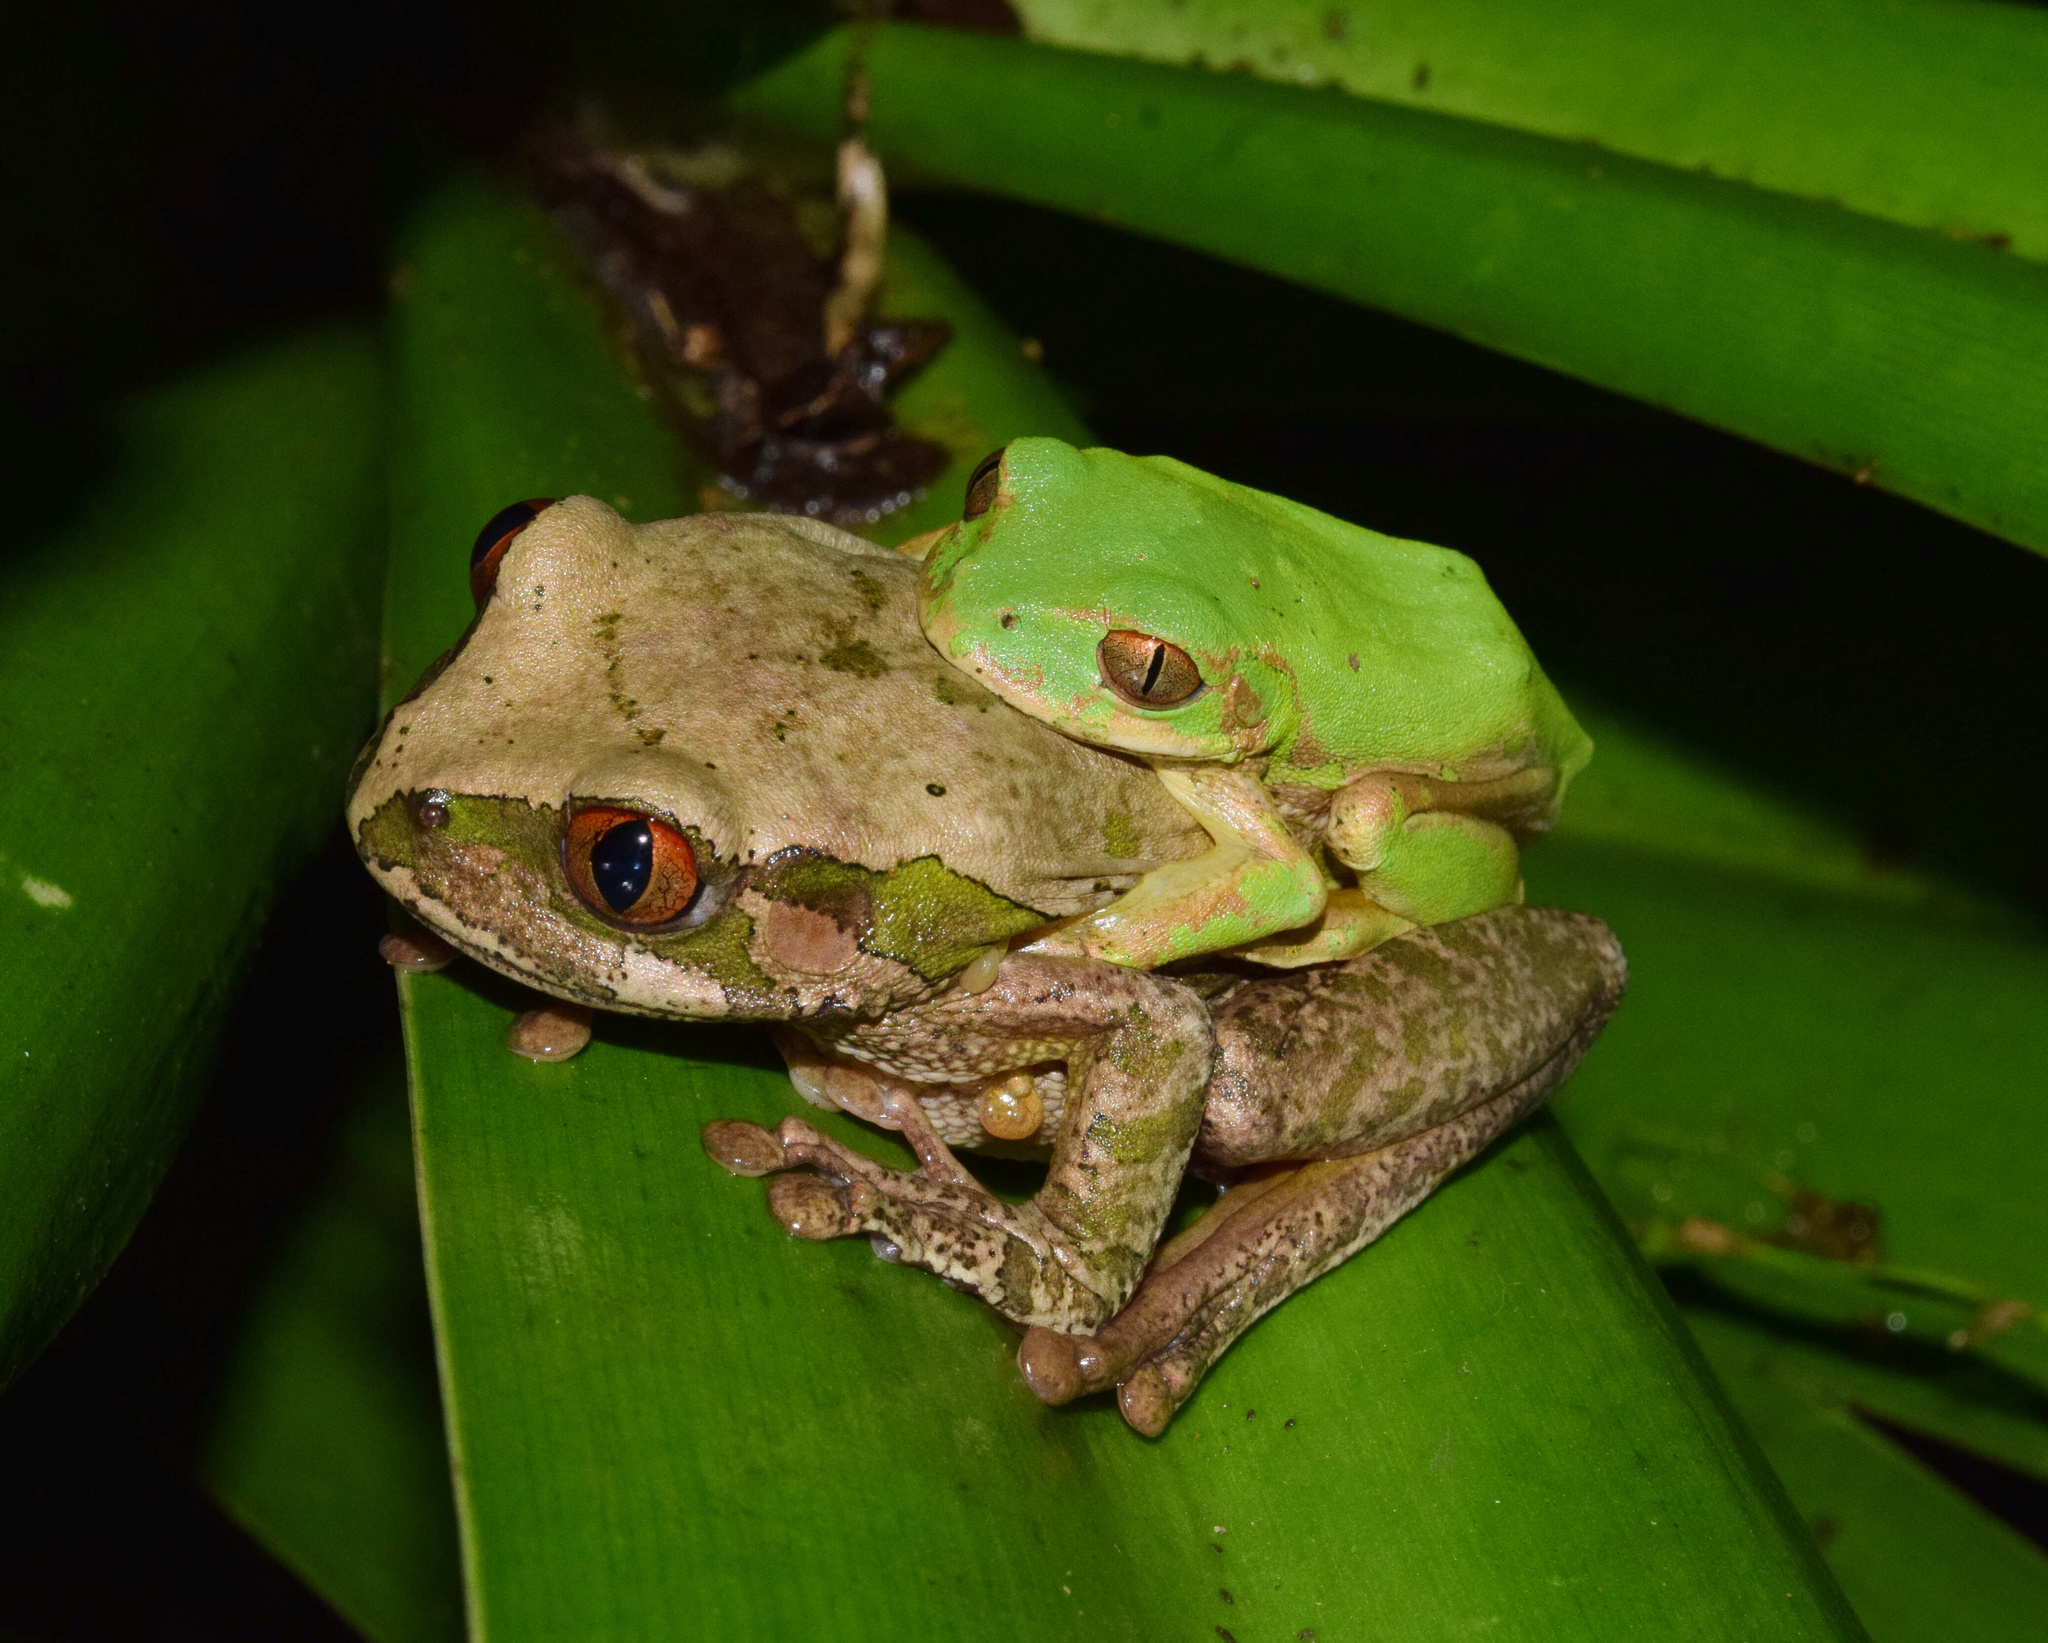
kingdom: Animalia
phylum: Chordata
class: Amphibia
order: Anura
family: Arthroleptidae
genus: Leptopelis
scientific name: Leptopelis natalensis
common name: Natal tree frog
